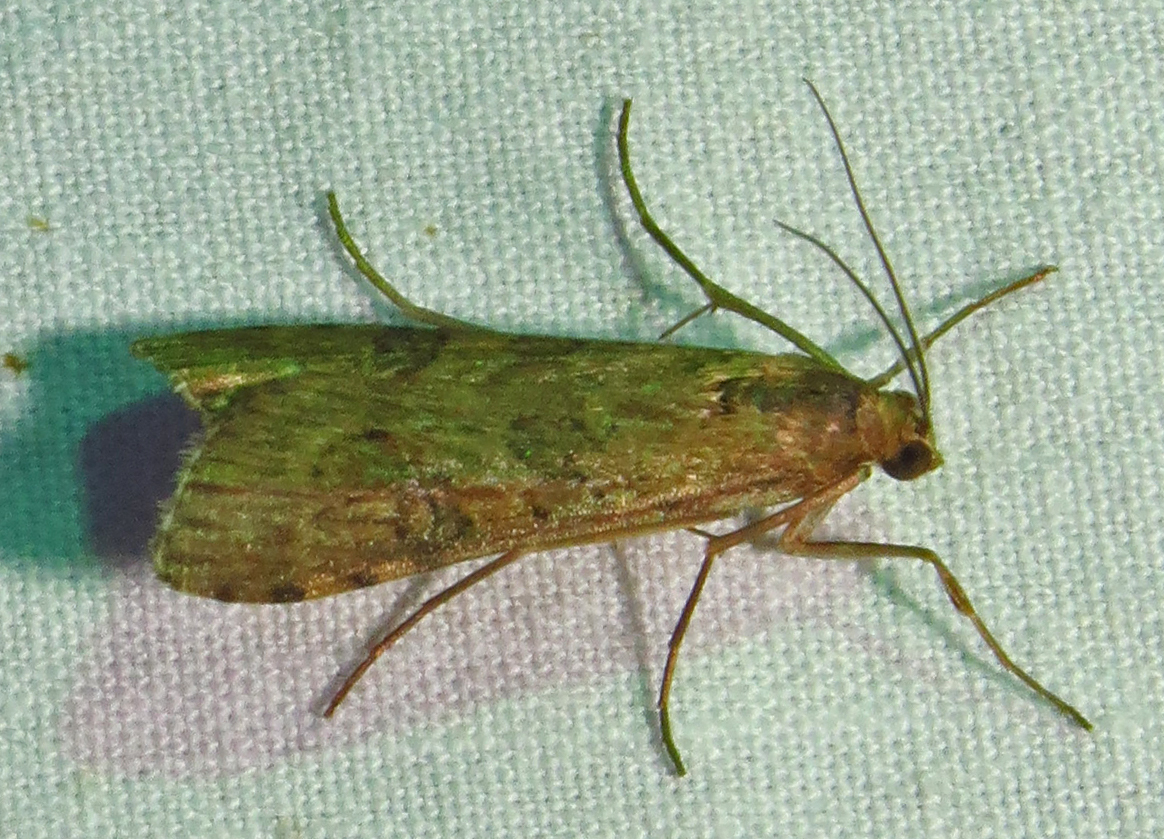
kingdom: Animalia
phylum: Arthropoda
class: Insecta
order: Lepidoptera
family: Crambidae
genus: Nomophila
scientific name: Nomophila nearctica
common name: American rush veneer
